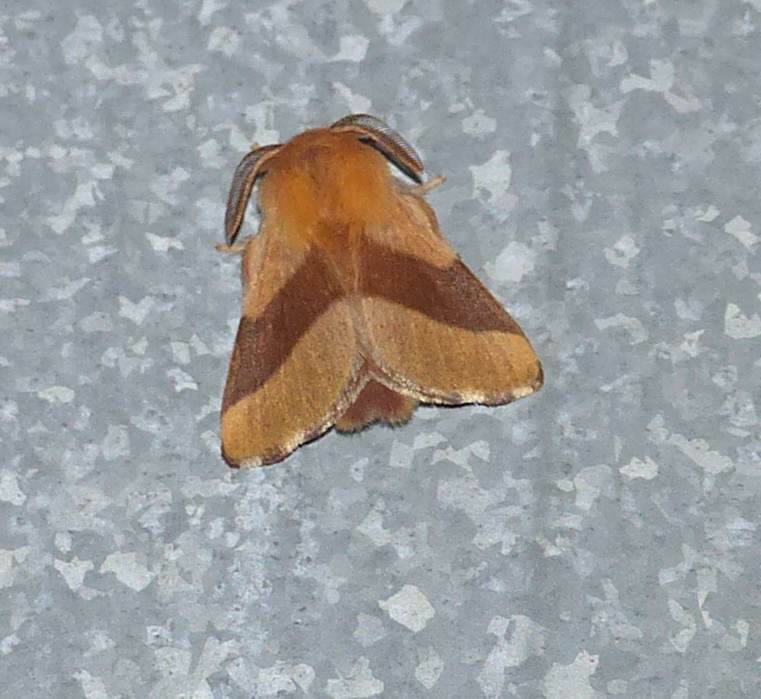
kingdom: Animalia
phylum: Arthropoda
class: Insecta
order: Lepidoptera
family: Lasiocampidae
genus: Malacosoma
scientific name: Malacosoma disstria
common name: Forest tent caterpillar
